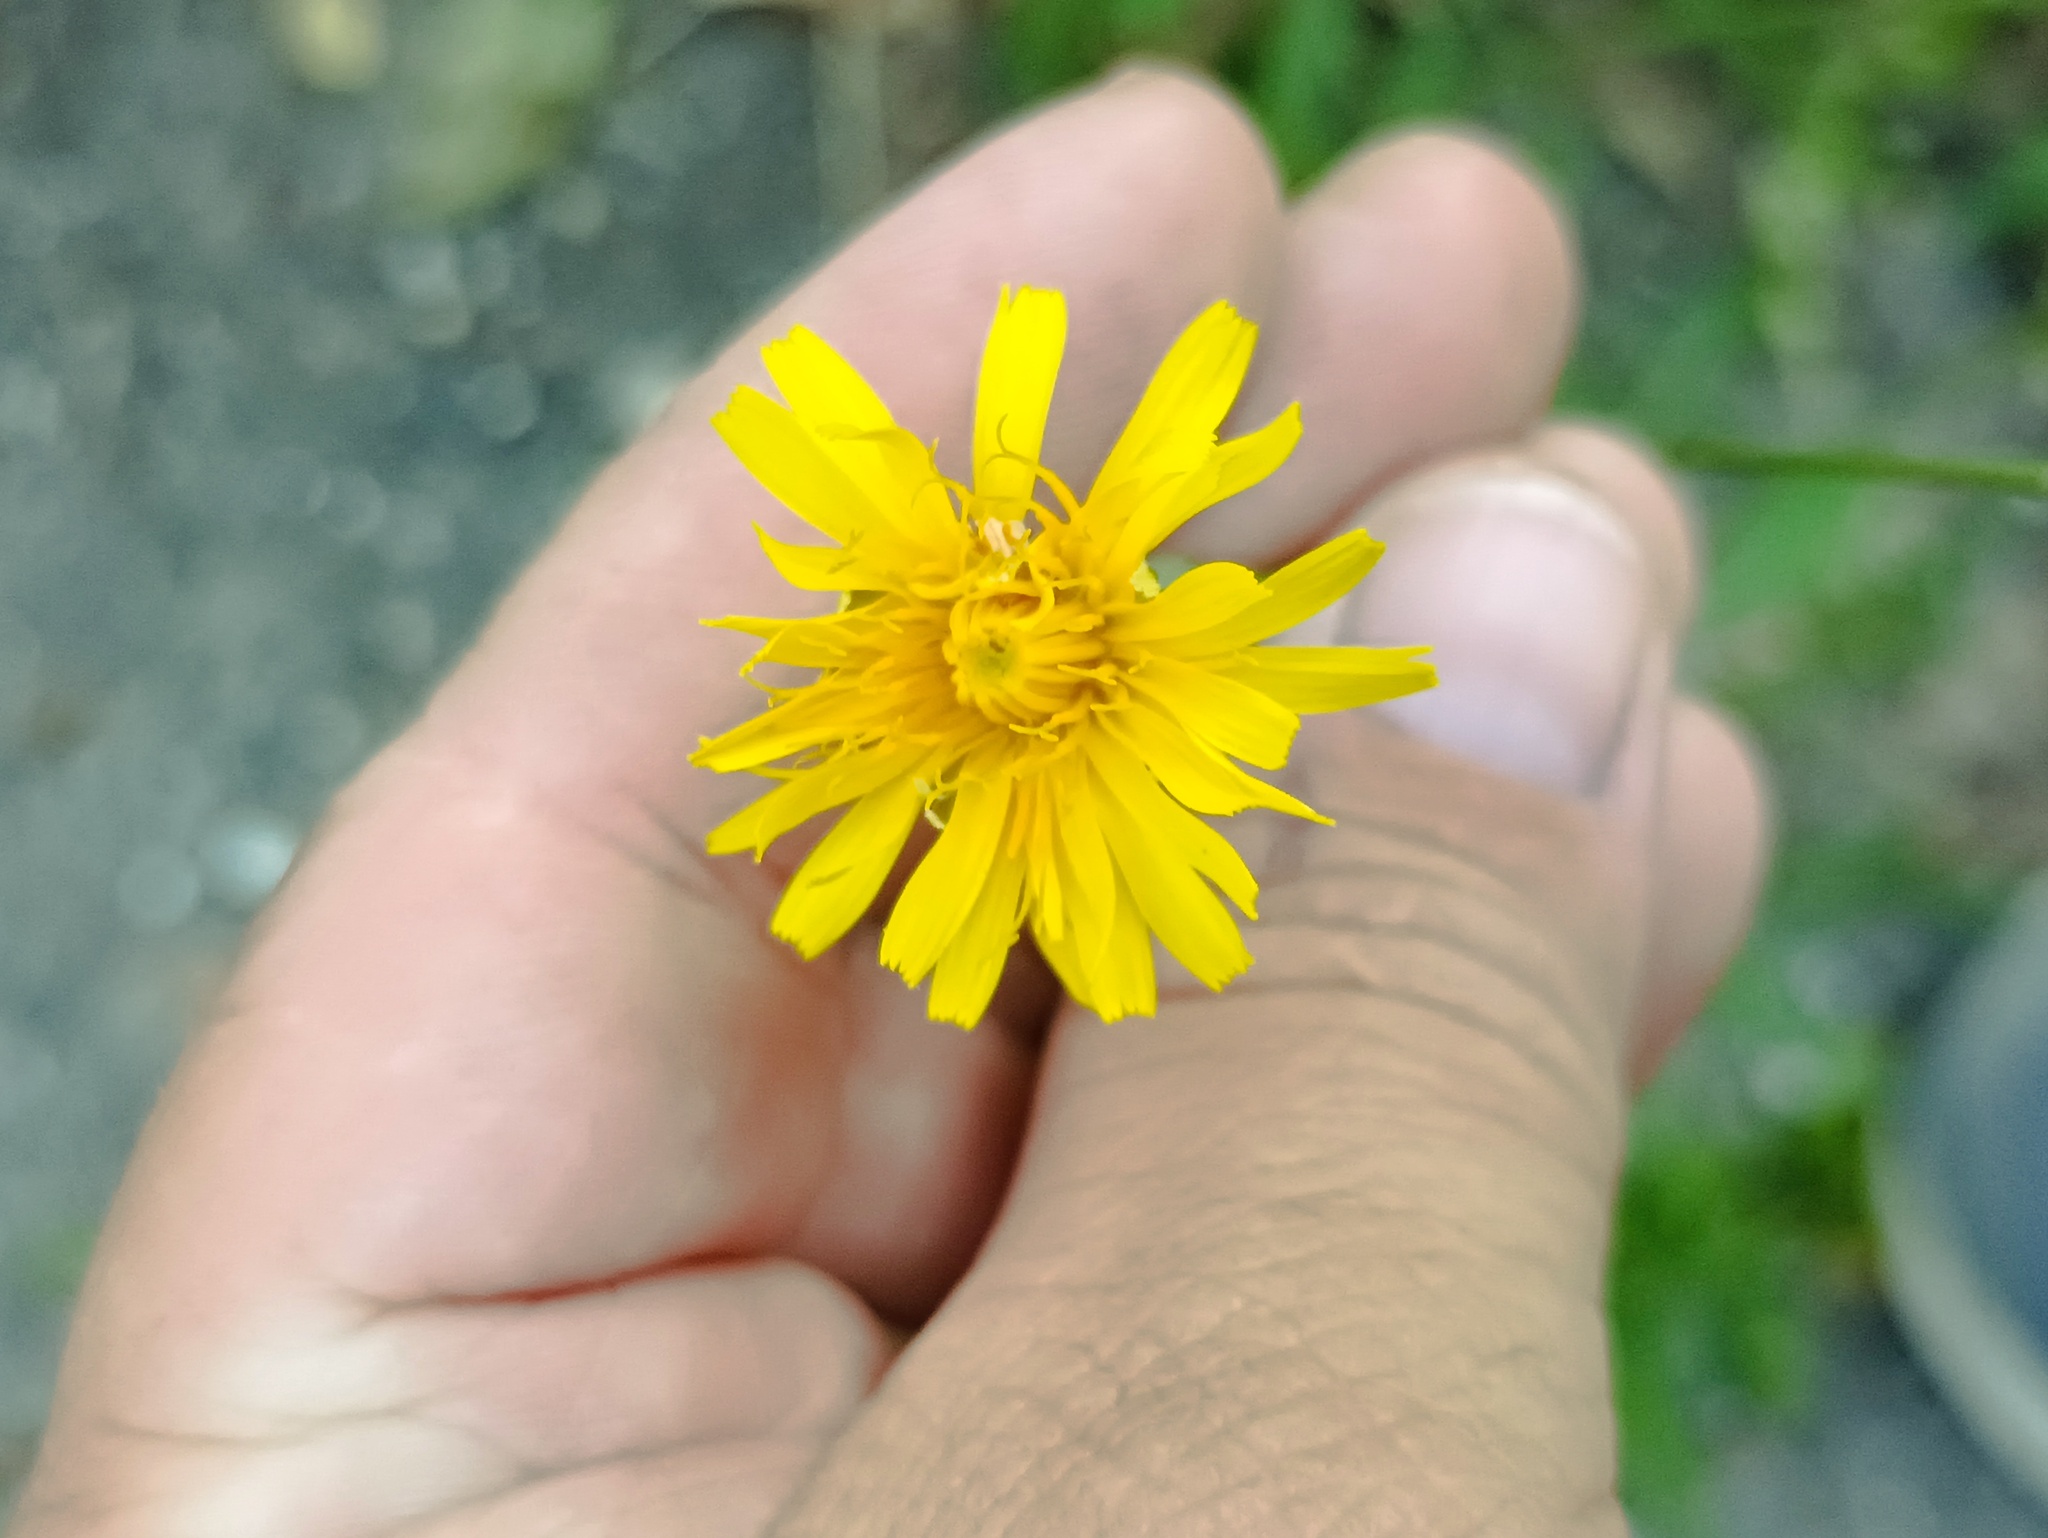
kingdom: Plantae
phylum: Tracheophyta
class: Magnoliopsida
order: Asterales
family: Asteraceae
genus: Scorzoneroides
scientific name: Scorzoneroides autumnalis
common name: Autumn hawkbit
